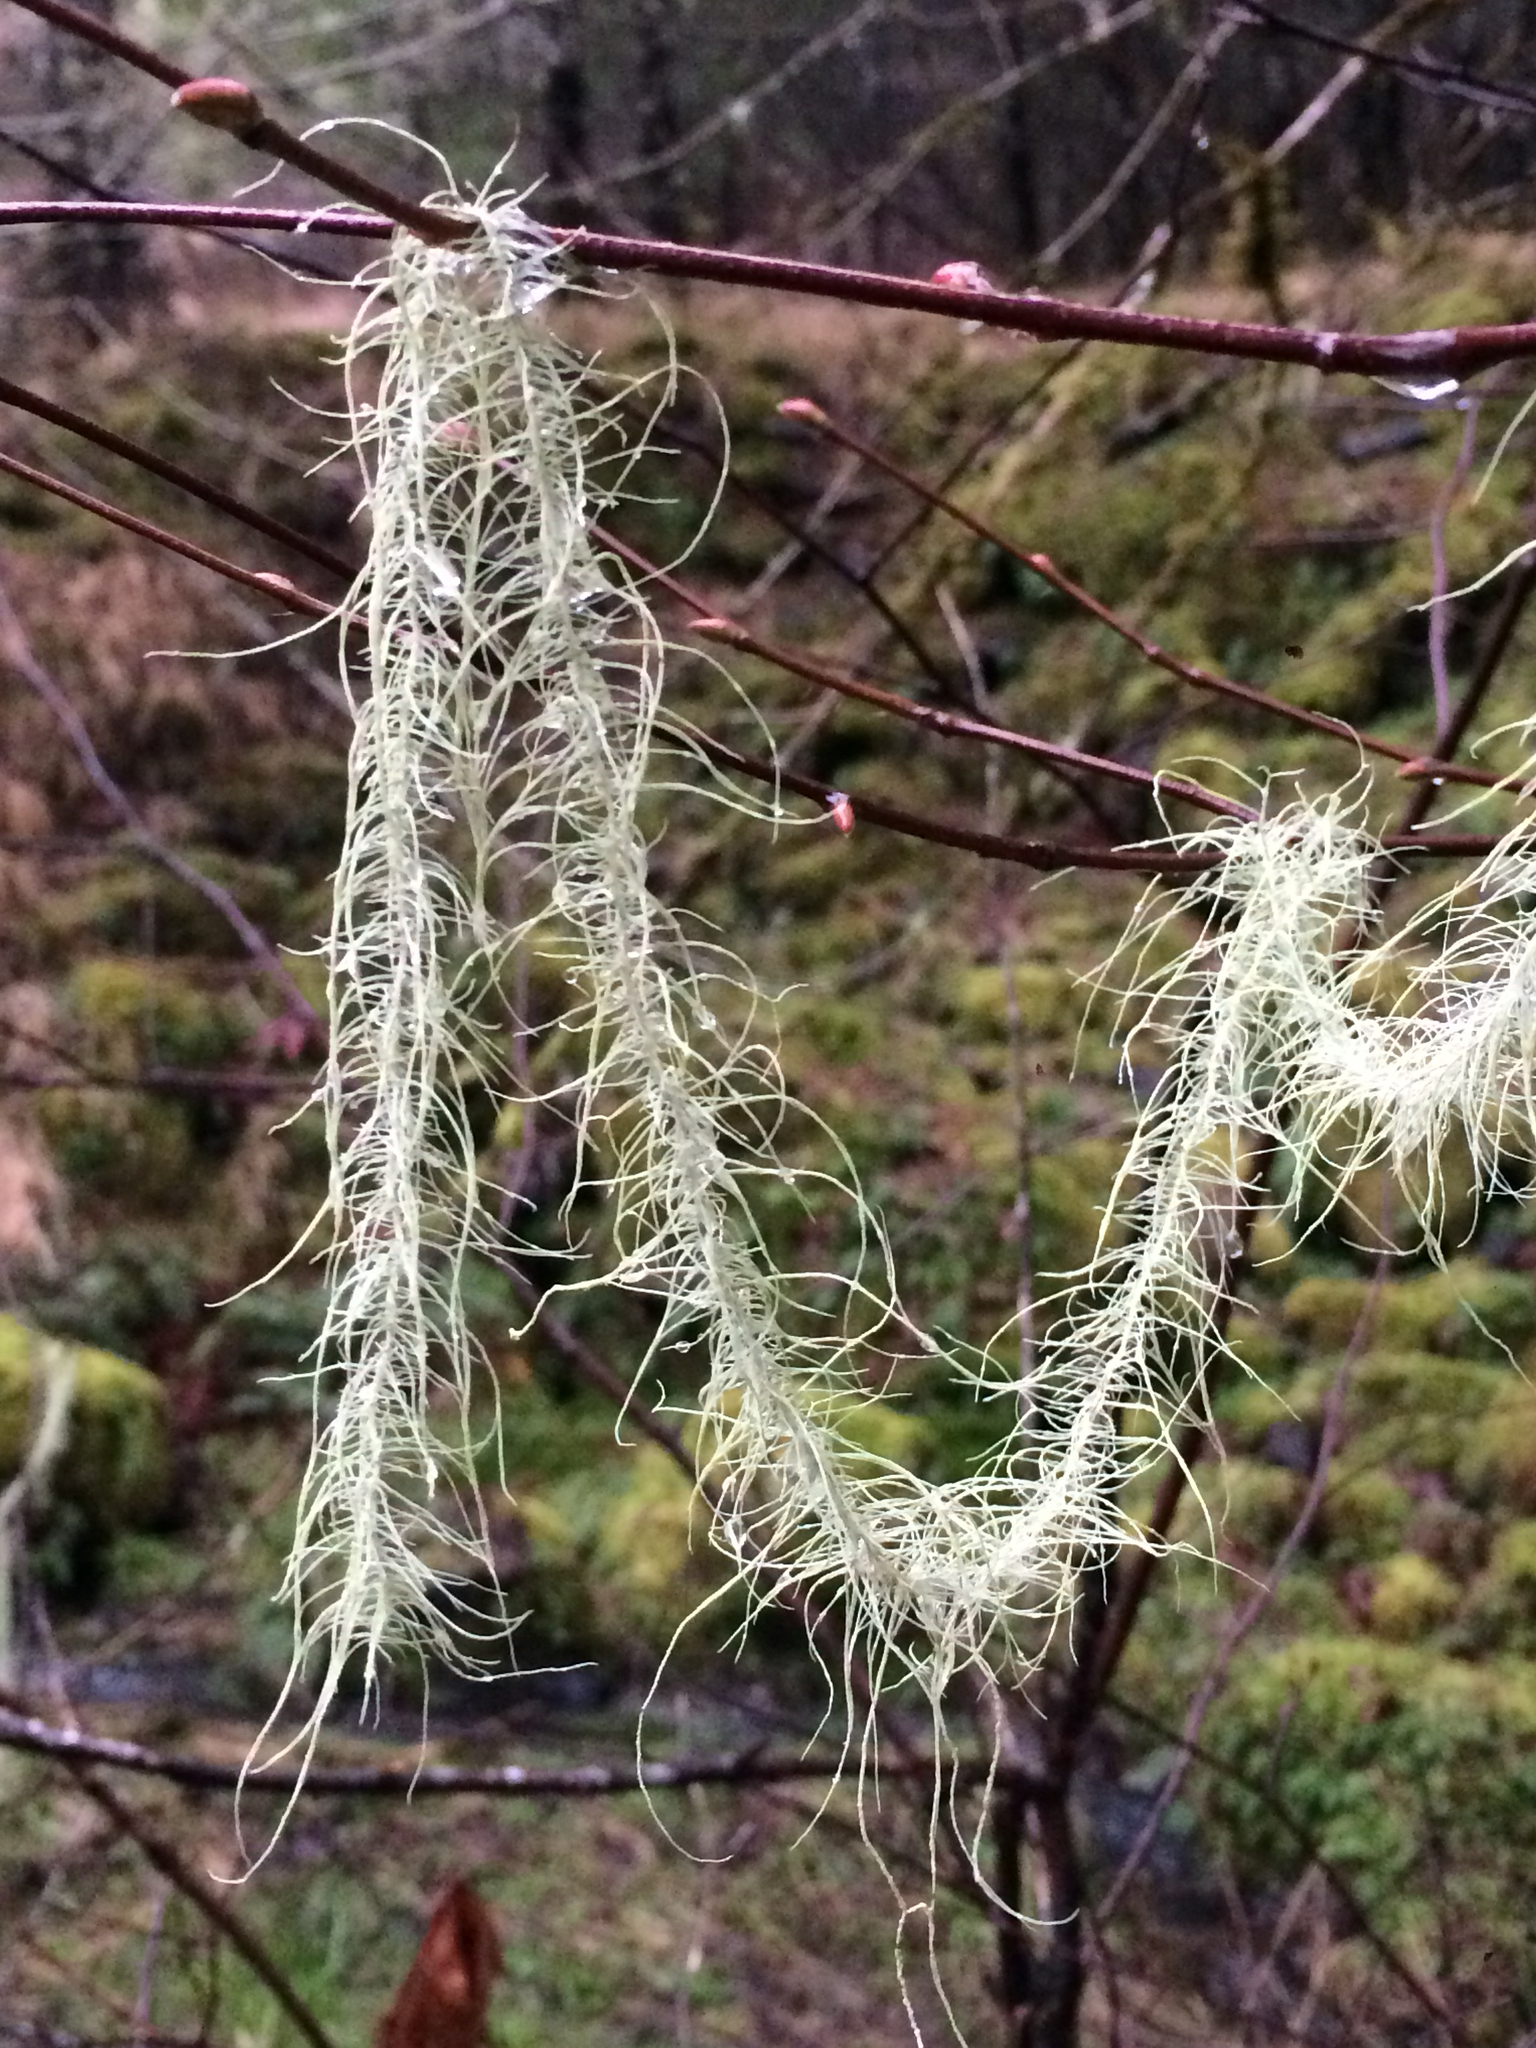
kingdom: Fungi
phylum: Ascomycota
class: Lecanoromycetes
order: Lecanorales
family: Parmeliaceae
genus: Dolichousnea
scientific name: Dolichousnea longissima
